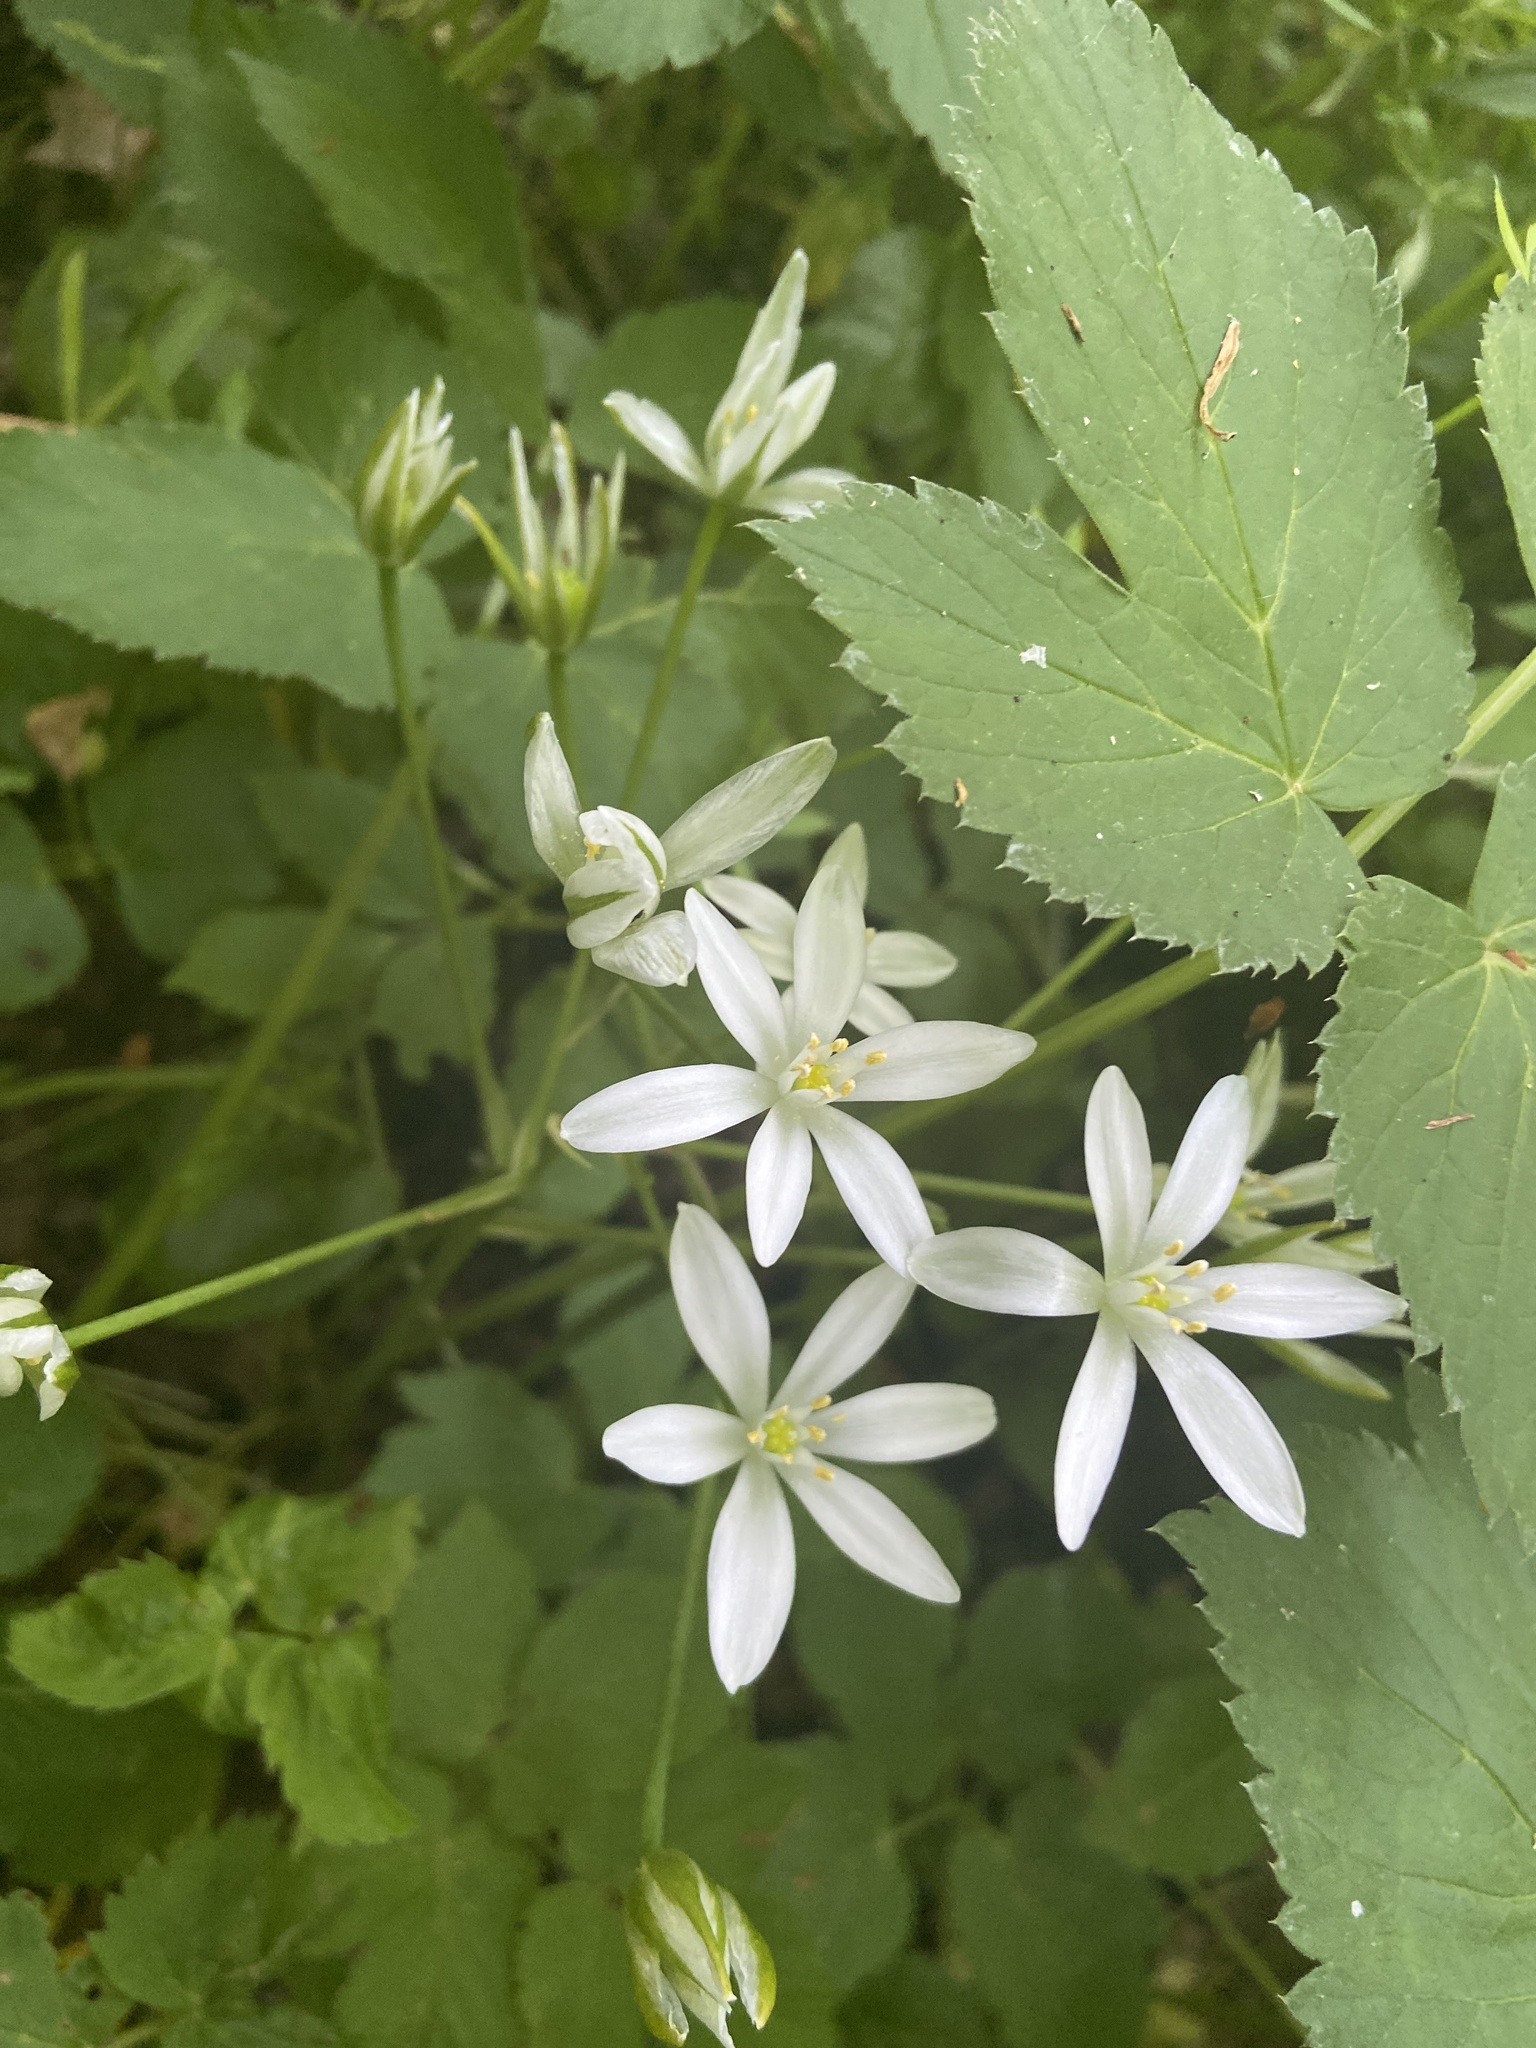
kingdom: Plantae
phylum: Tracheophyta
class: Liliopsida
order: Asparagales
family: Asparagaceae
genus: Ornithogalum
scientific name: Ornithogalum umbellatum
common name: Garden star-of-bethlehem
